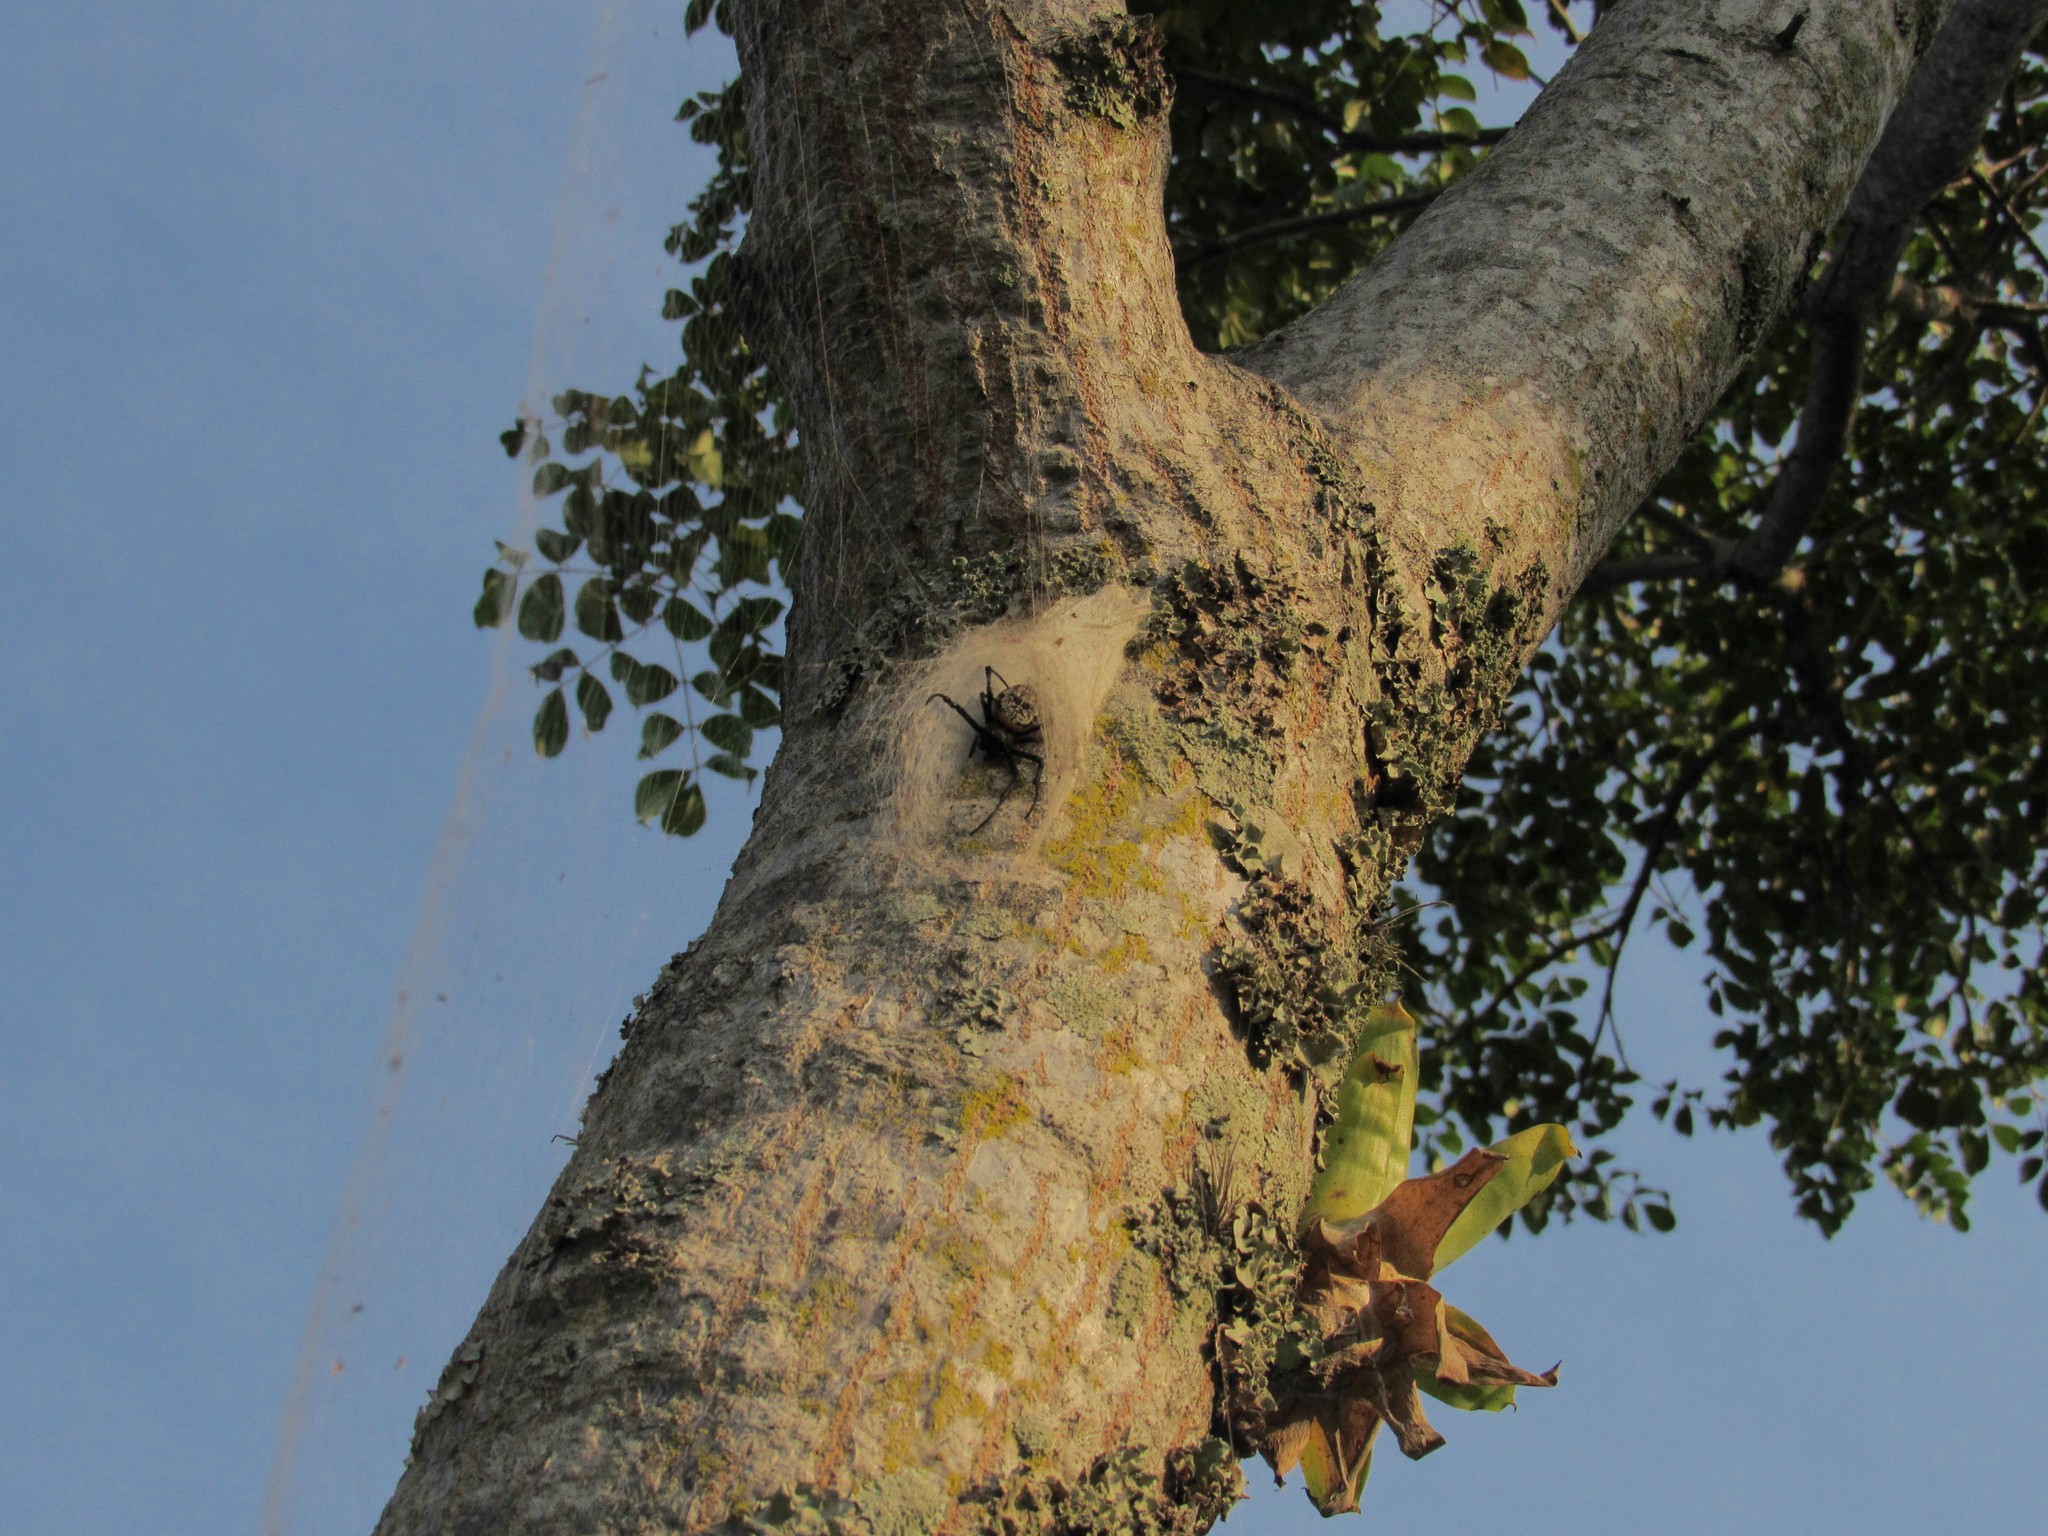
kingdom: Animalia
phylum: Arthropoda
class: Arachnida
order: Araneae
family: Araneidae
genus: Nephilingis
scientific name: Nephilingis cruentata
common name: African hermit spider
